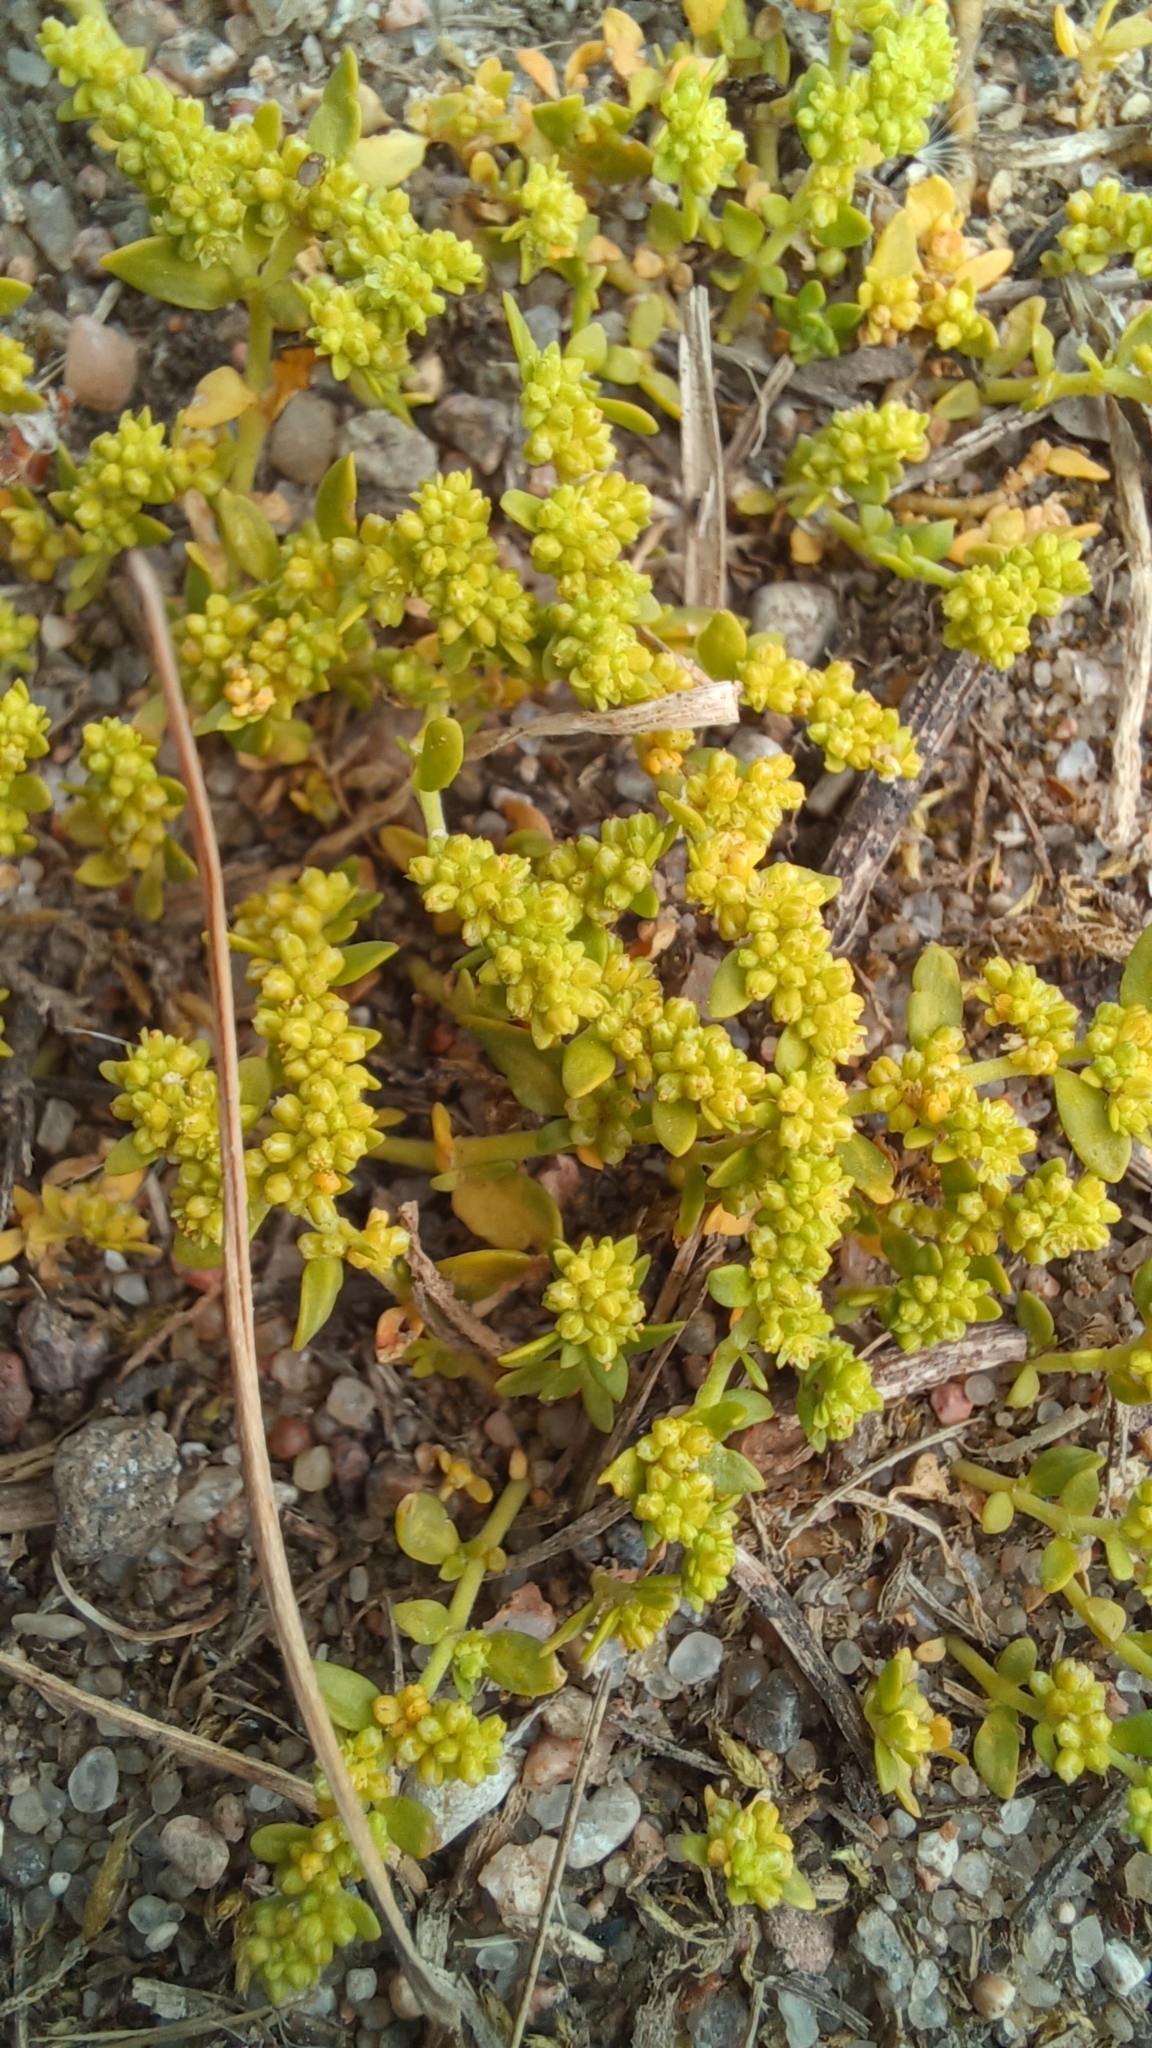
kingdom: Plantae
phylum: Tracheophyta
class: Magnoliopsida
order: Caryophyllales
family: Caryophyllaceae
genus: Herniaria
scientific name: Herniaria glabra
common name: Smooth rupturewort
